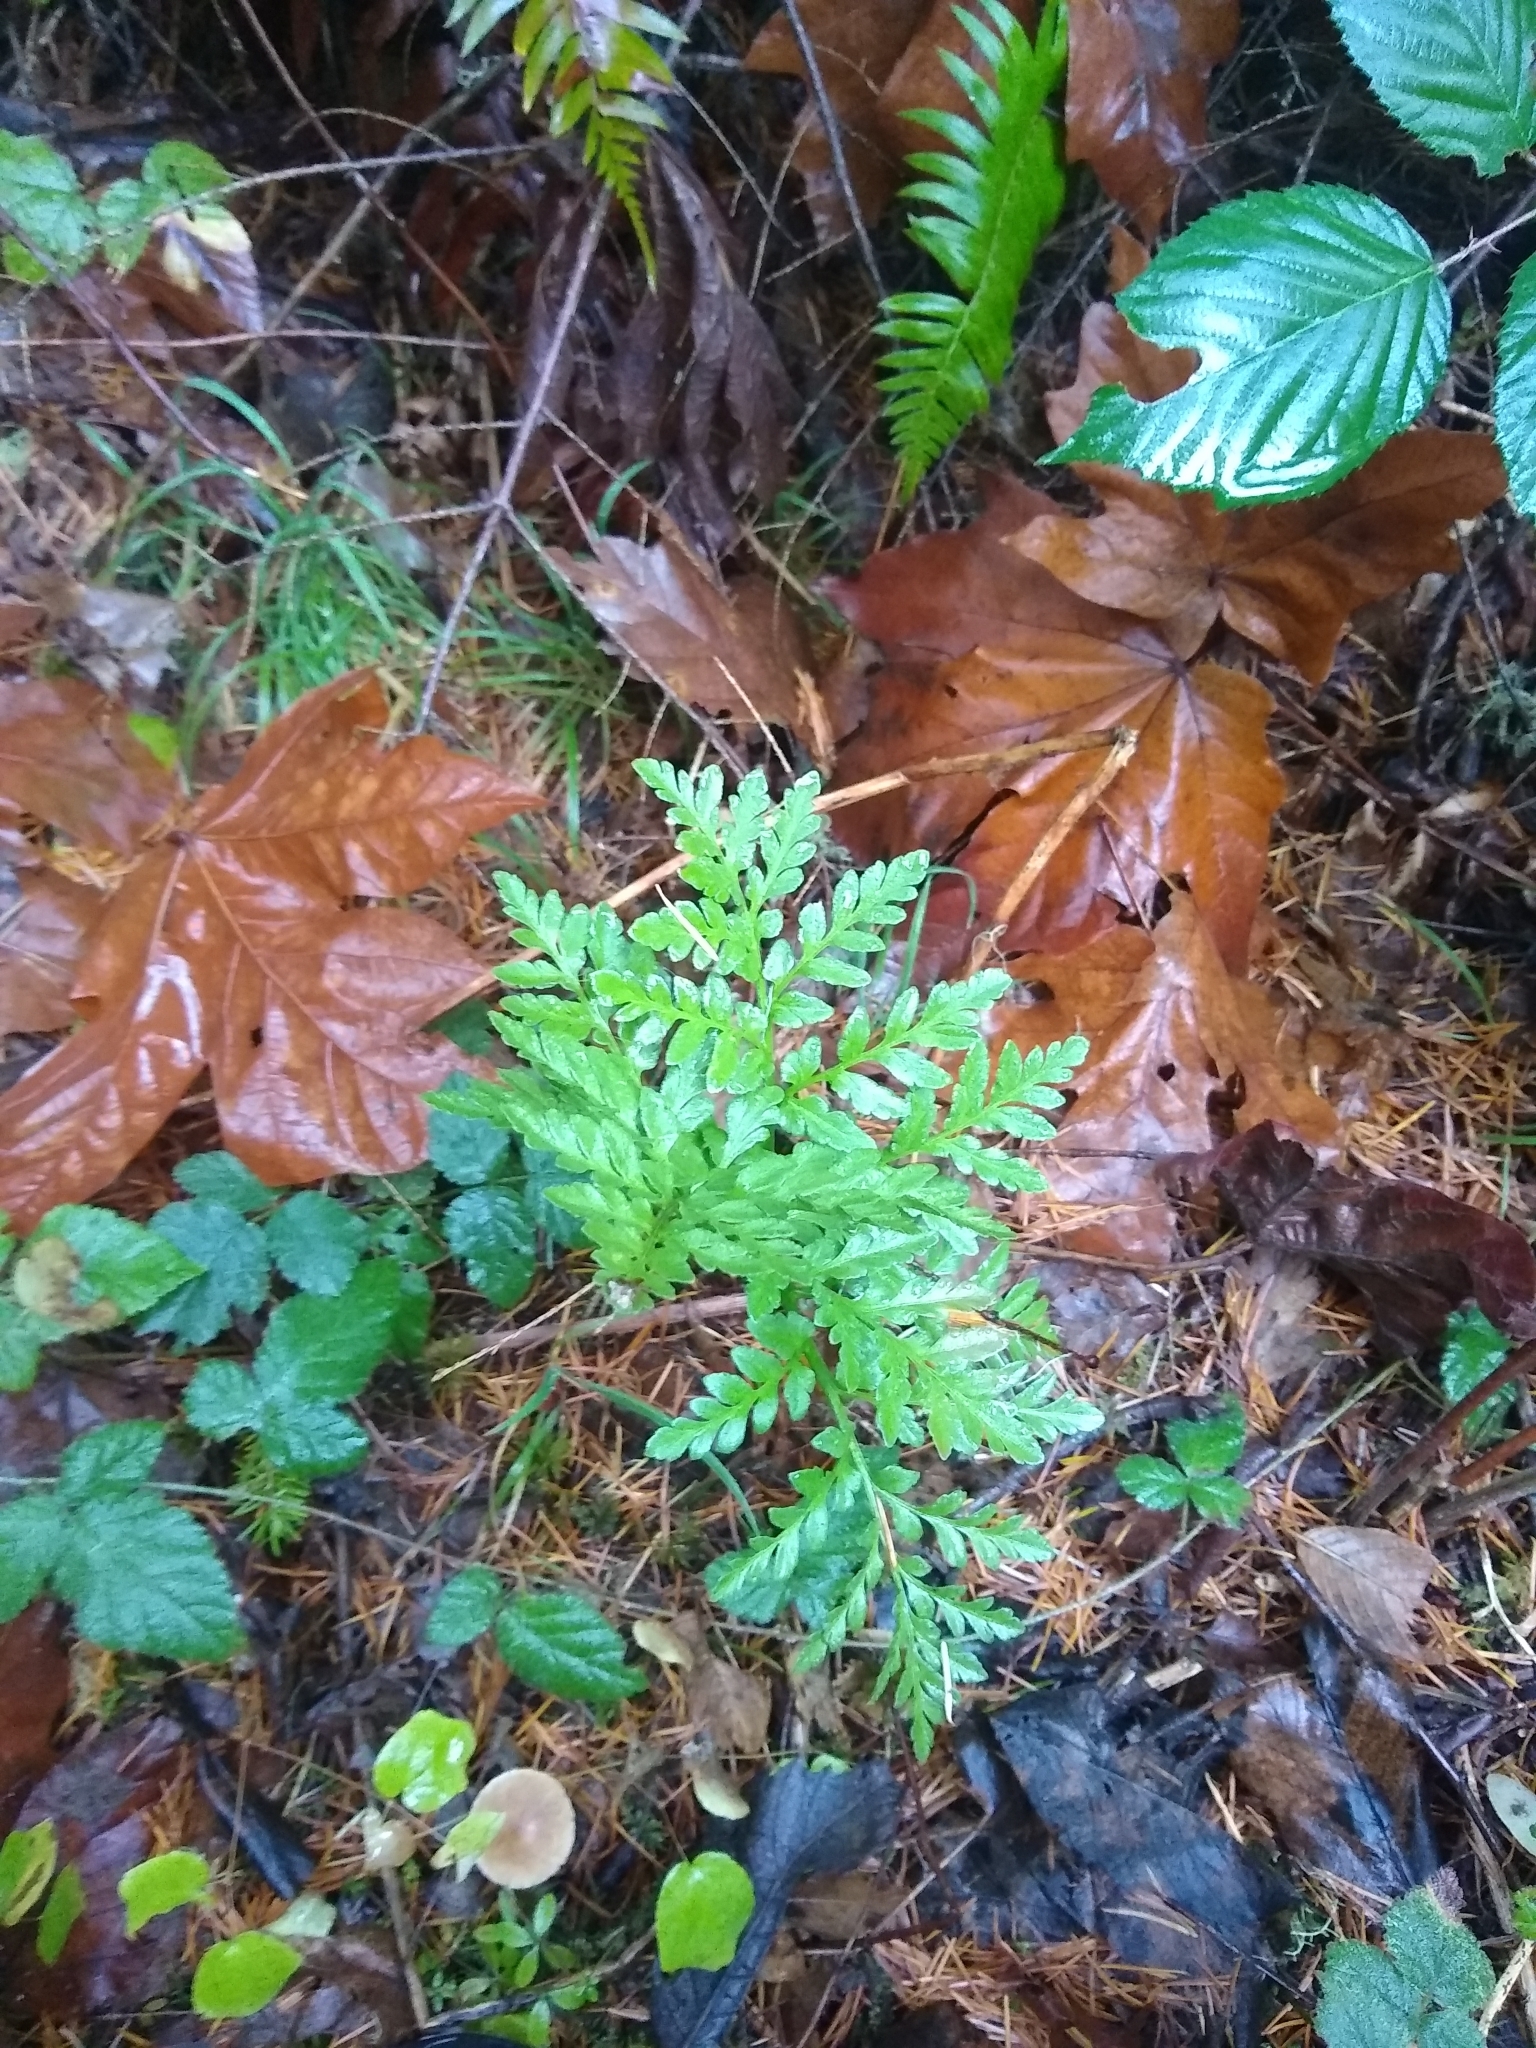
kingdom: Plantae
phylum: Tracheophyta
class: Polypodiopsida
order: Ophioglossales
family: Ophioglossaceae
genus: Sceptridium
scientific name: Sceptridium multifidum
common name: Leathery grape fern
